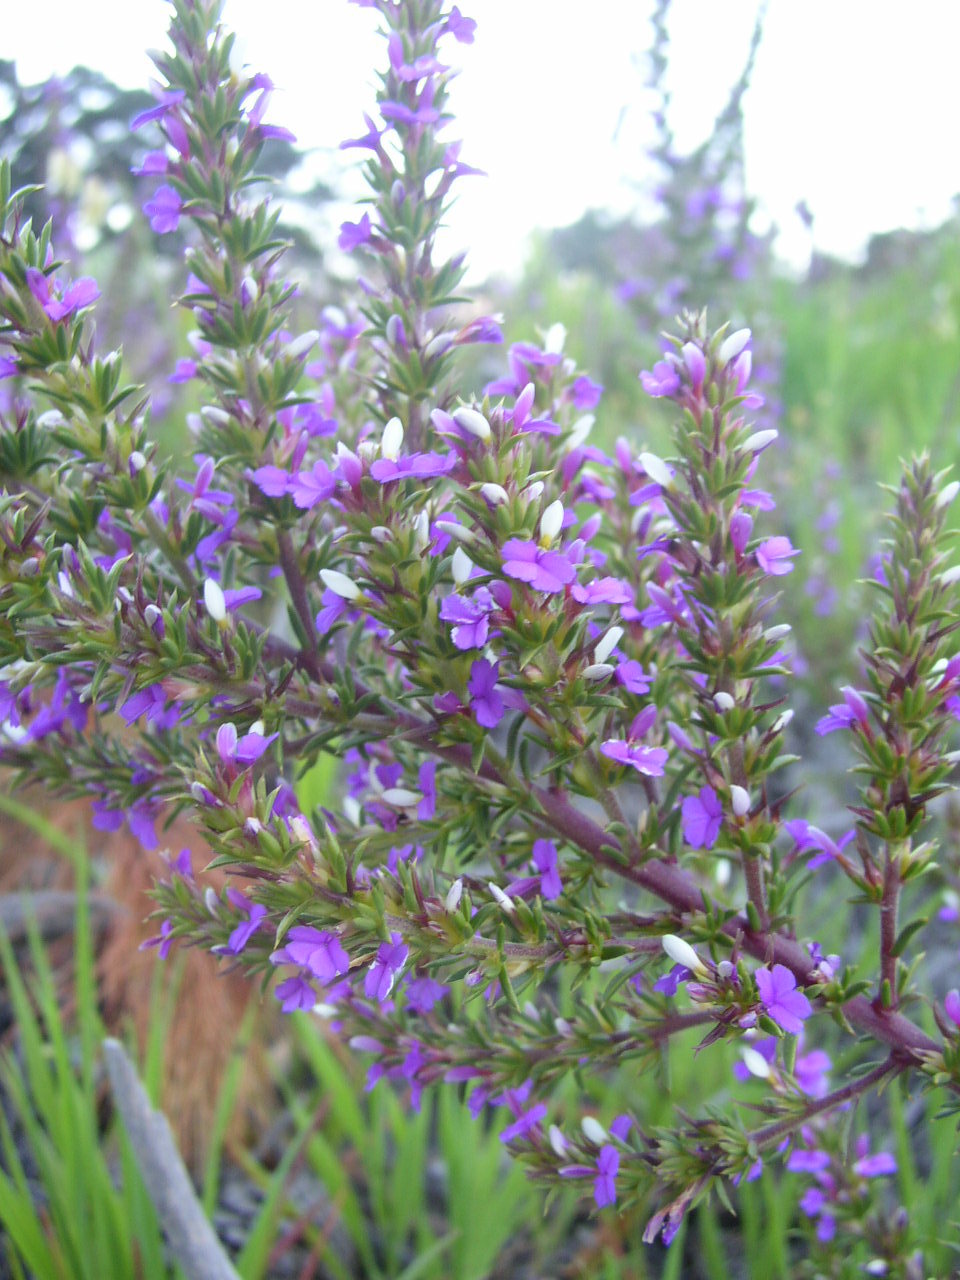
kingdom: Plantae
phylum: Tracheophyta
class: Magnoliopsida
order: Fabales
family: Polygalaceae
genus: Muraltia
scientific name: Muraltia heisteria
